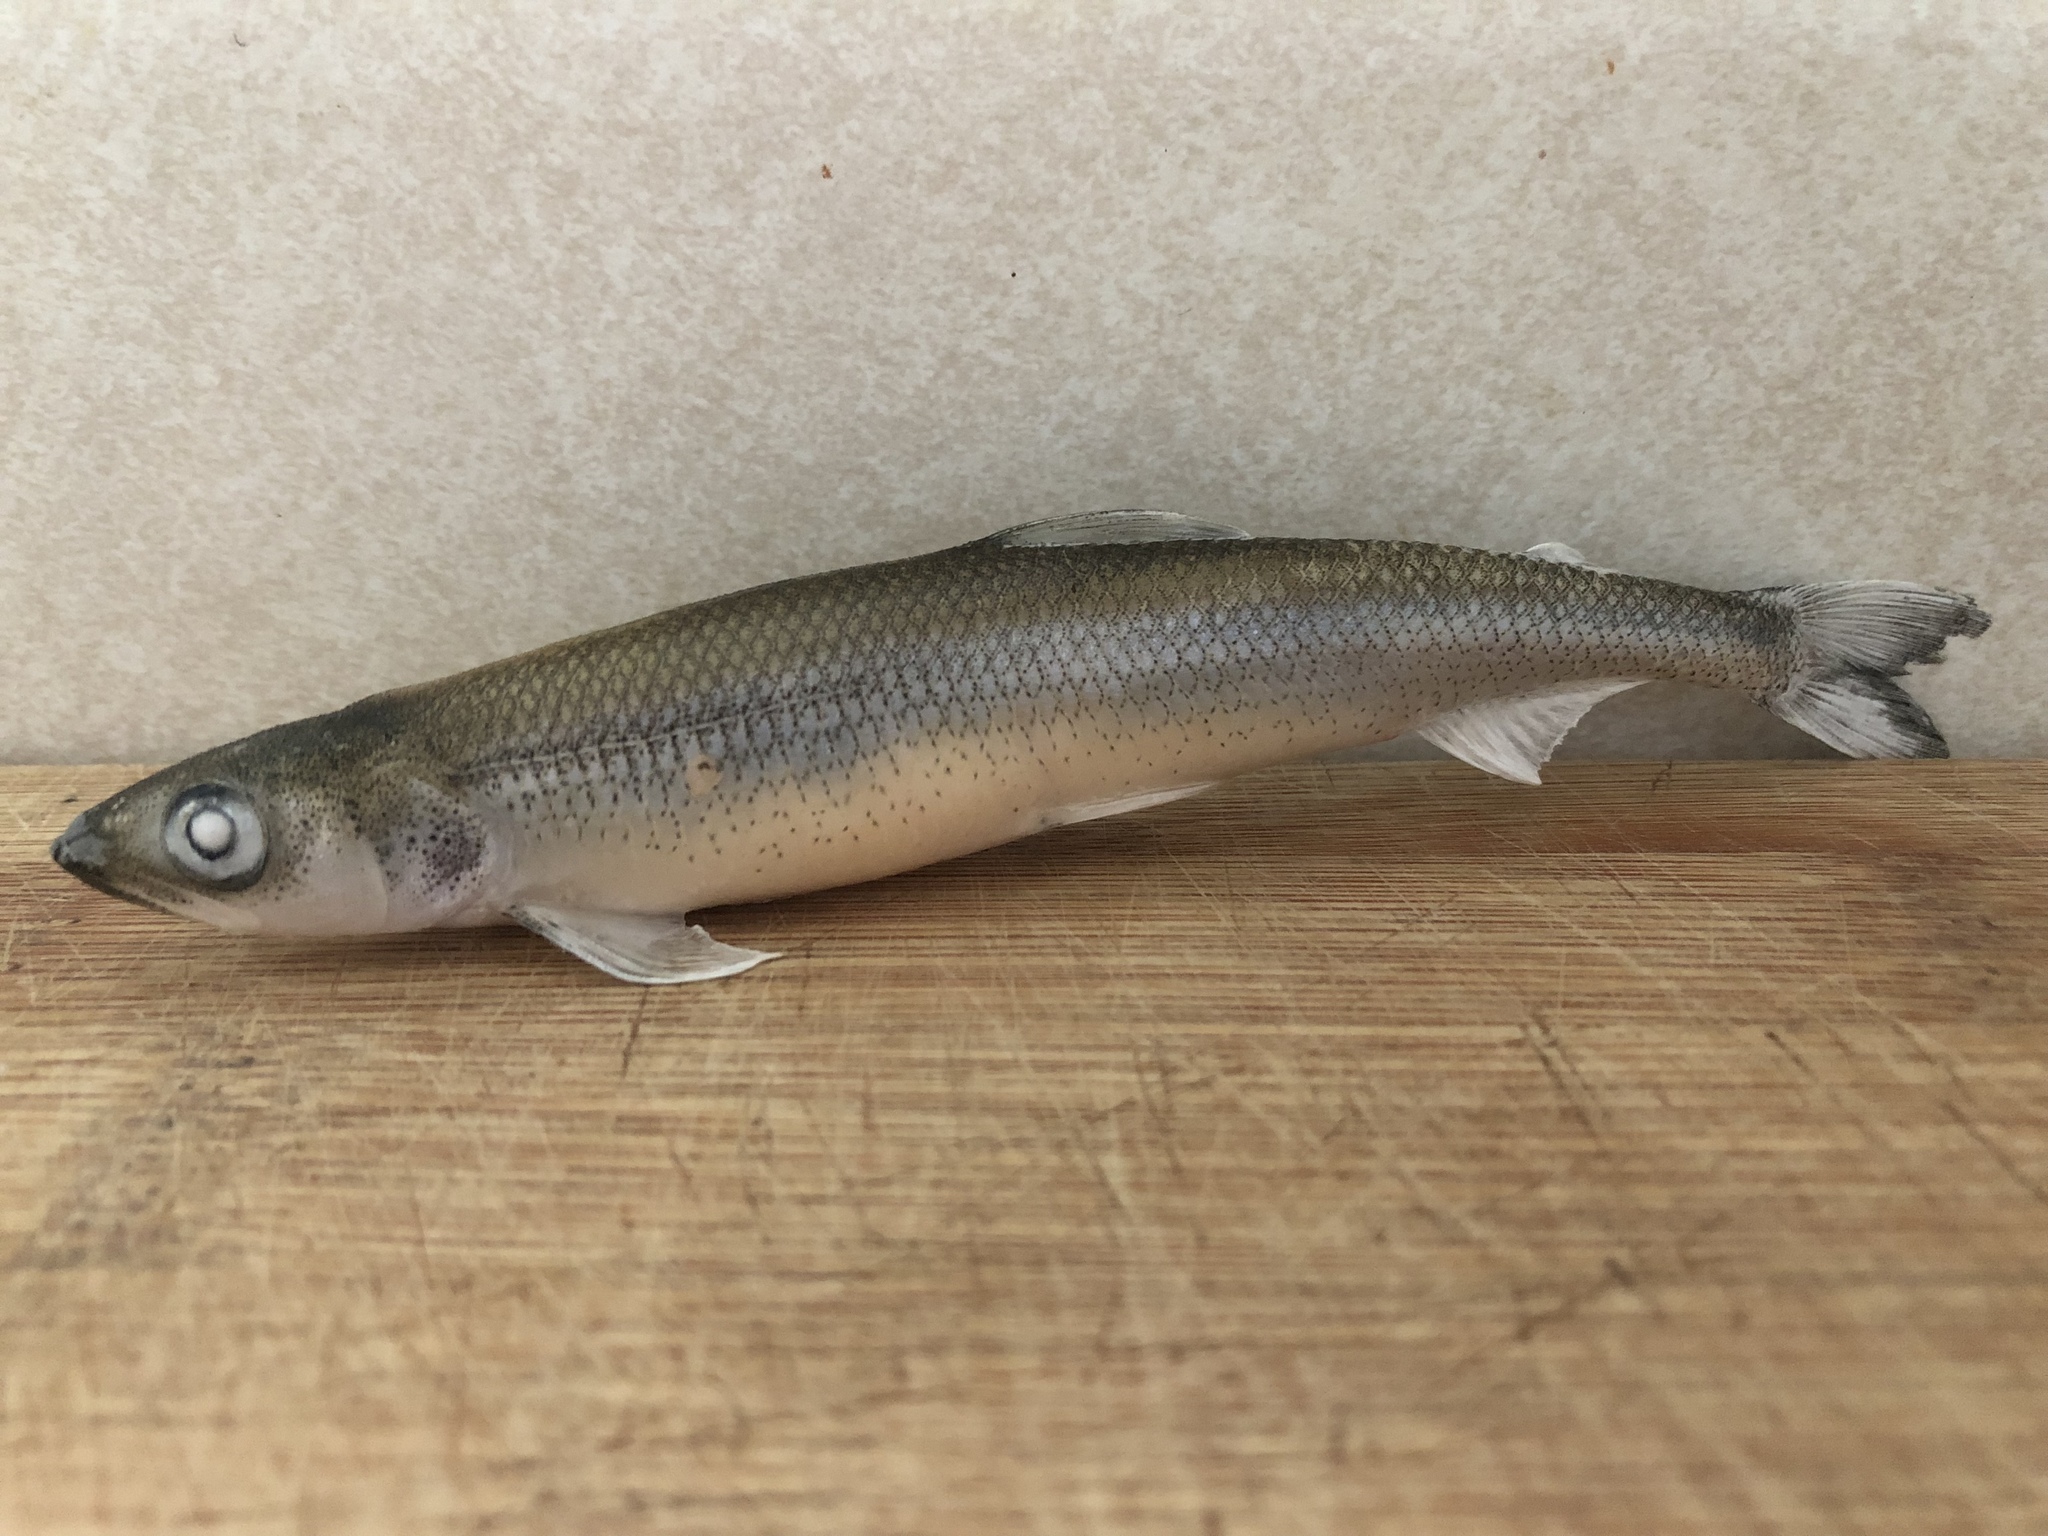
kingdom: Animalia
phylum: Chordata
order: Osmeriformes
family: Osmeridae
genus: Osmerus
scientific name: Osmerus mordax
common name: Rainbow smelt
